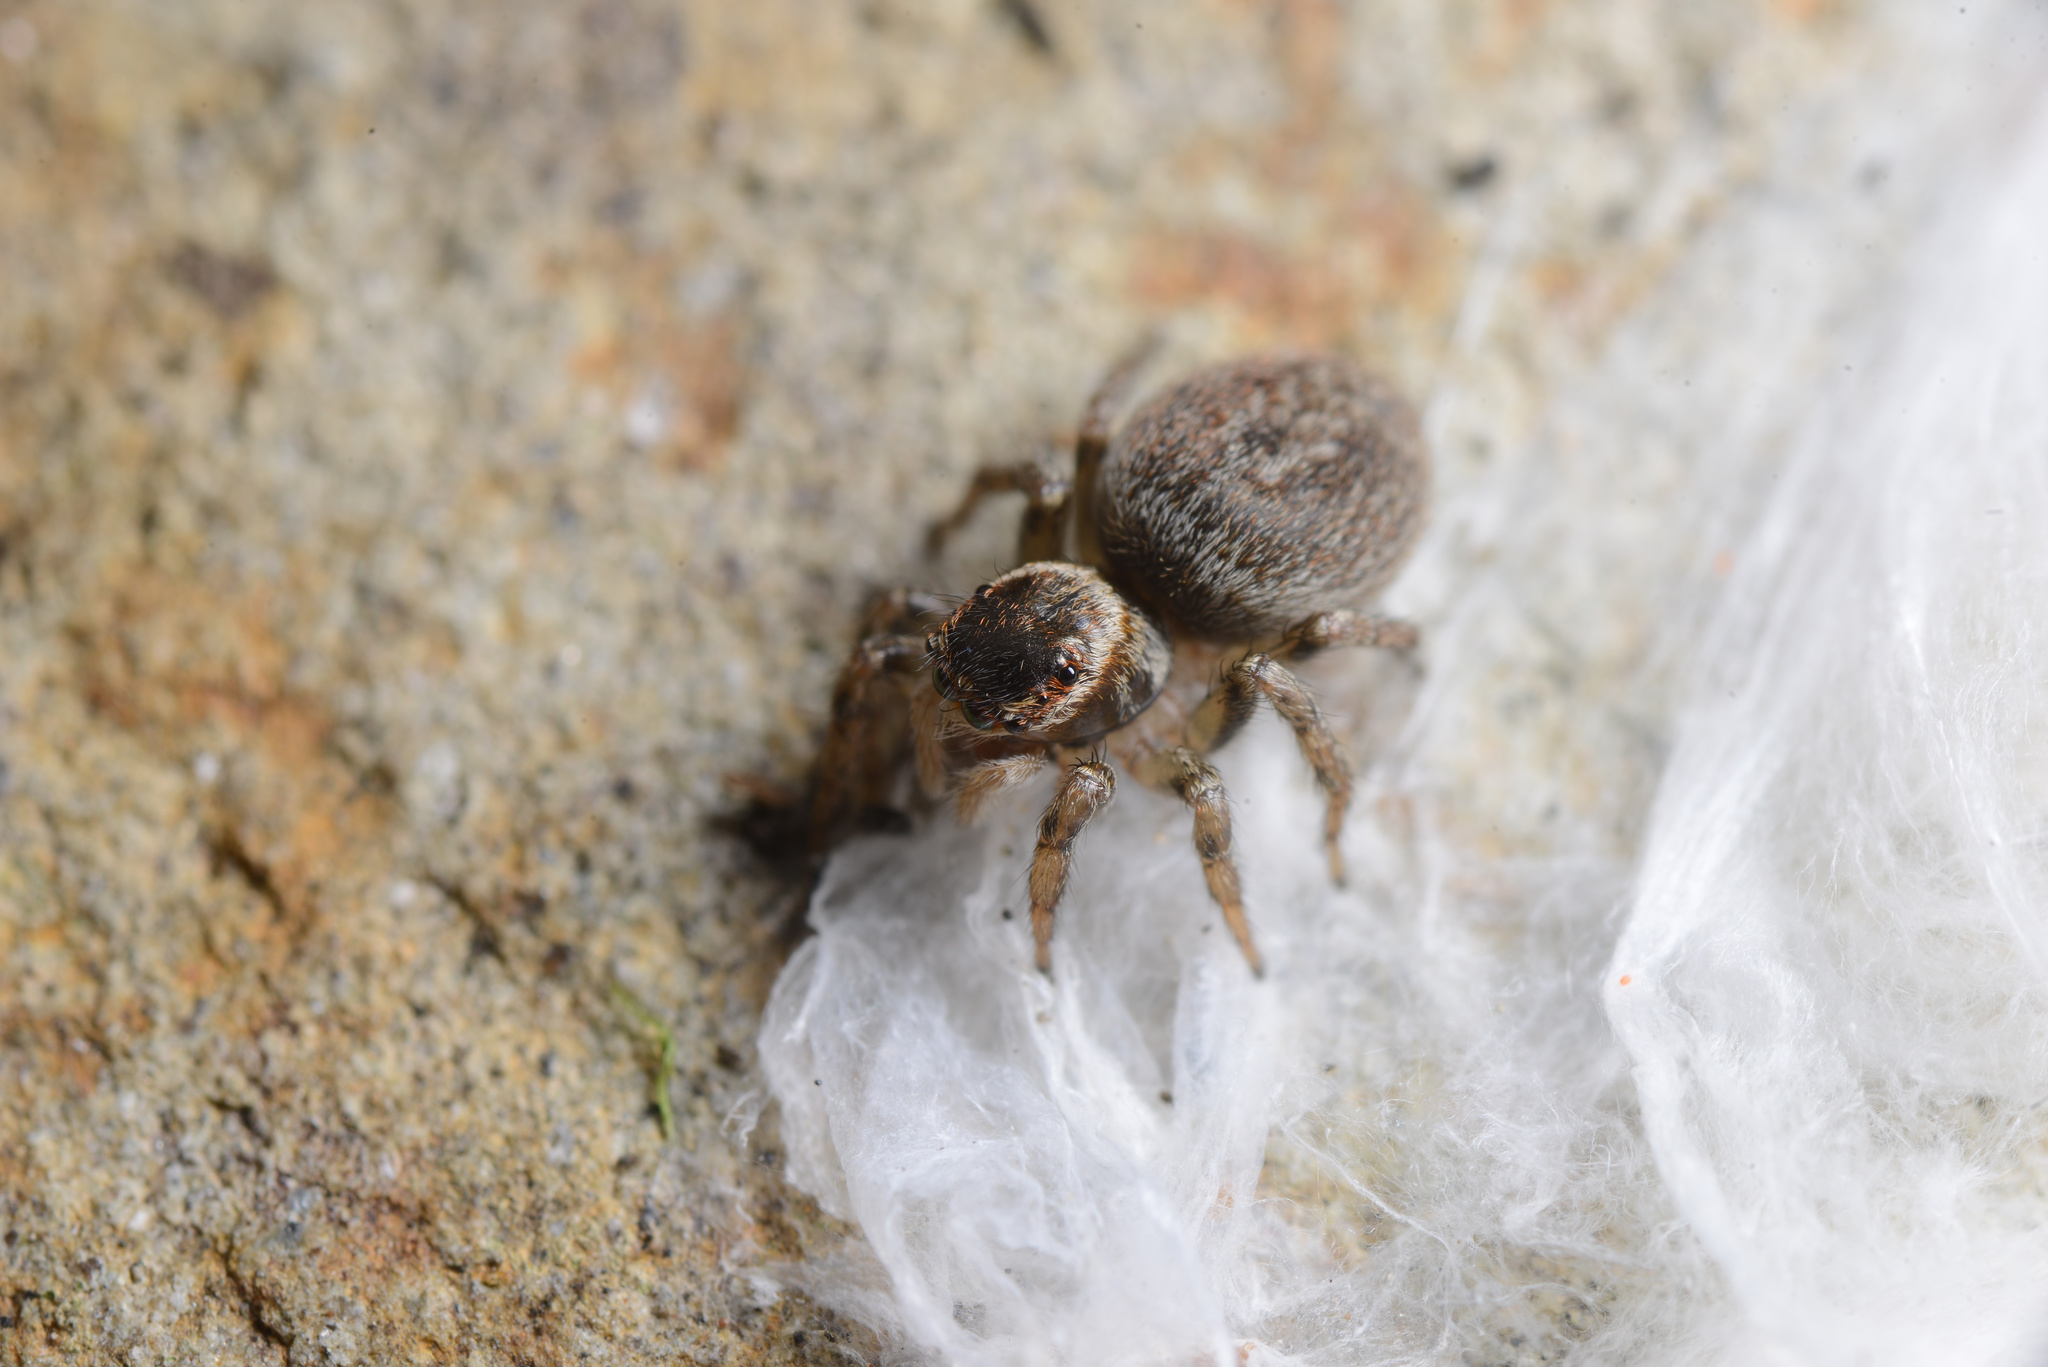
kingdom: Animalia
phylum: Arthropoda
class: Arachnida
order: Araneae
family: Salticidae
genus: Maratus
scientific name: Maratus griseus
